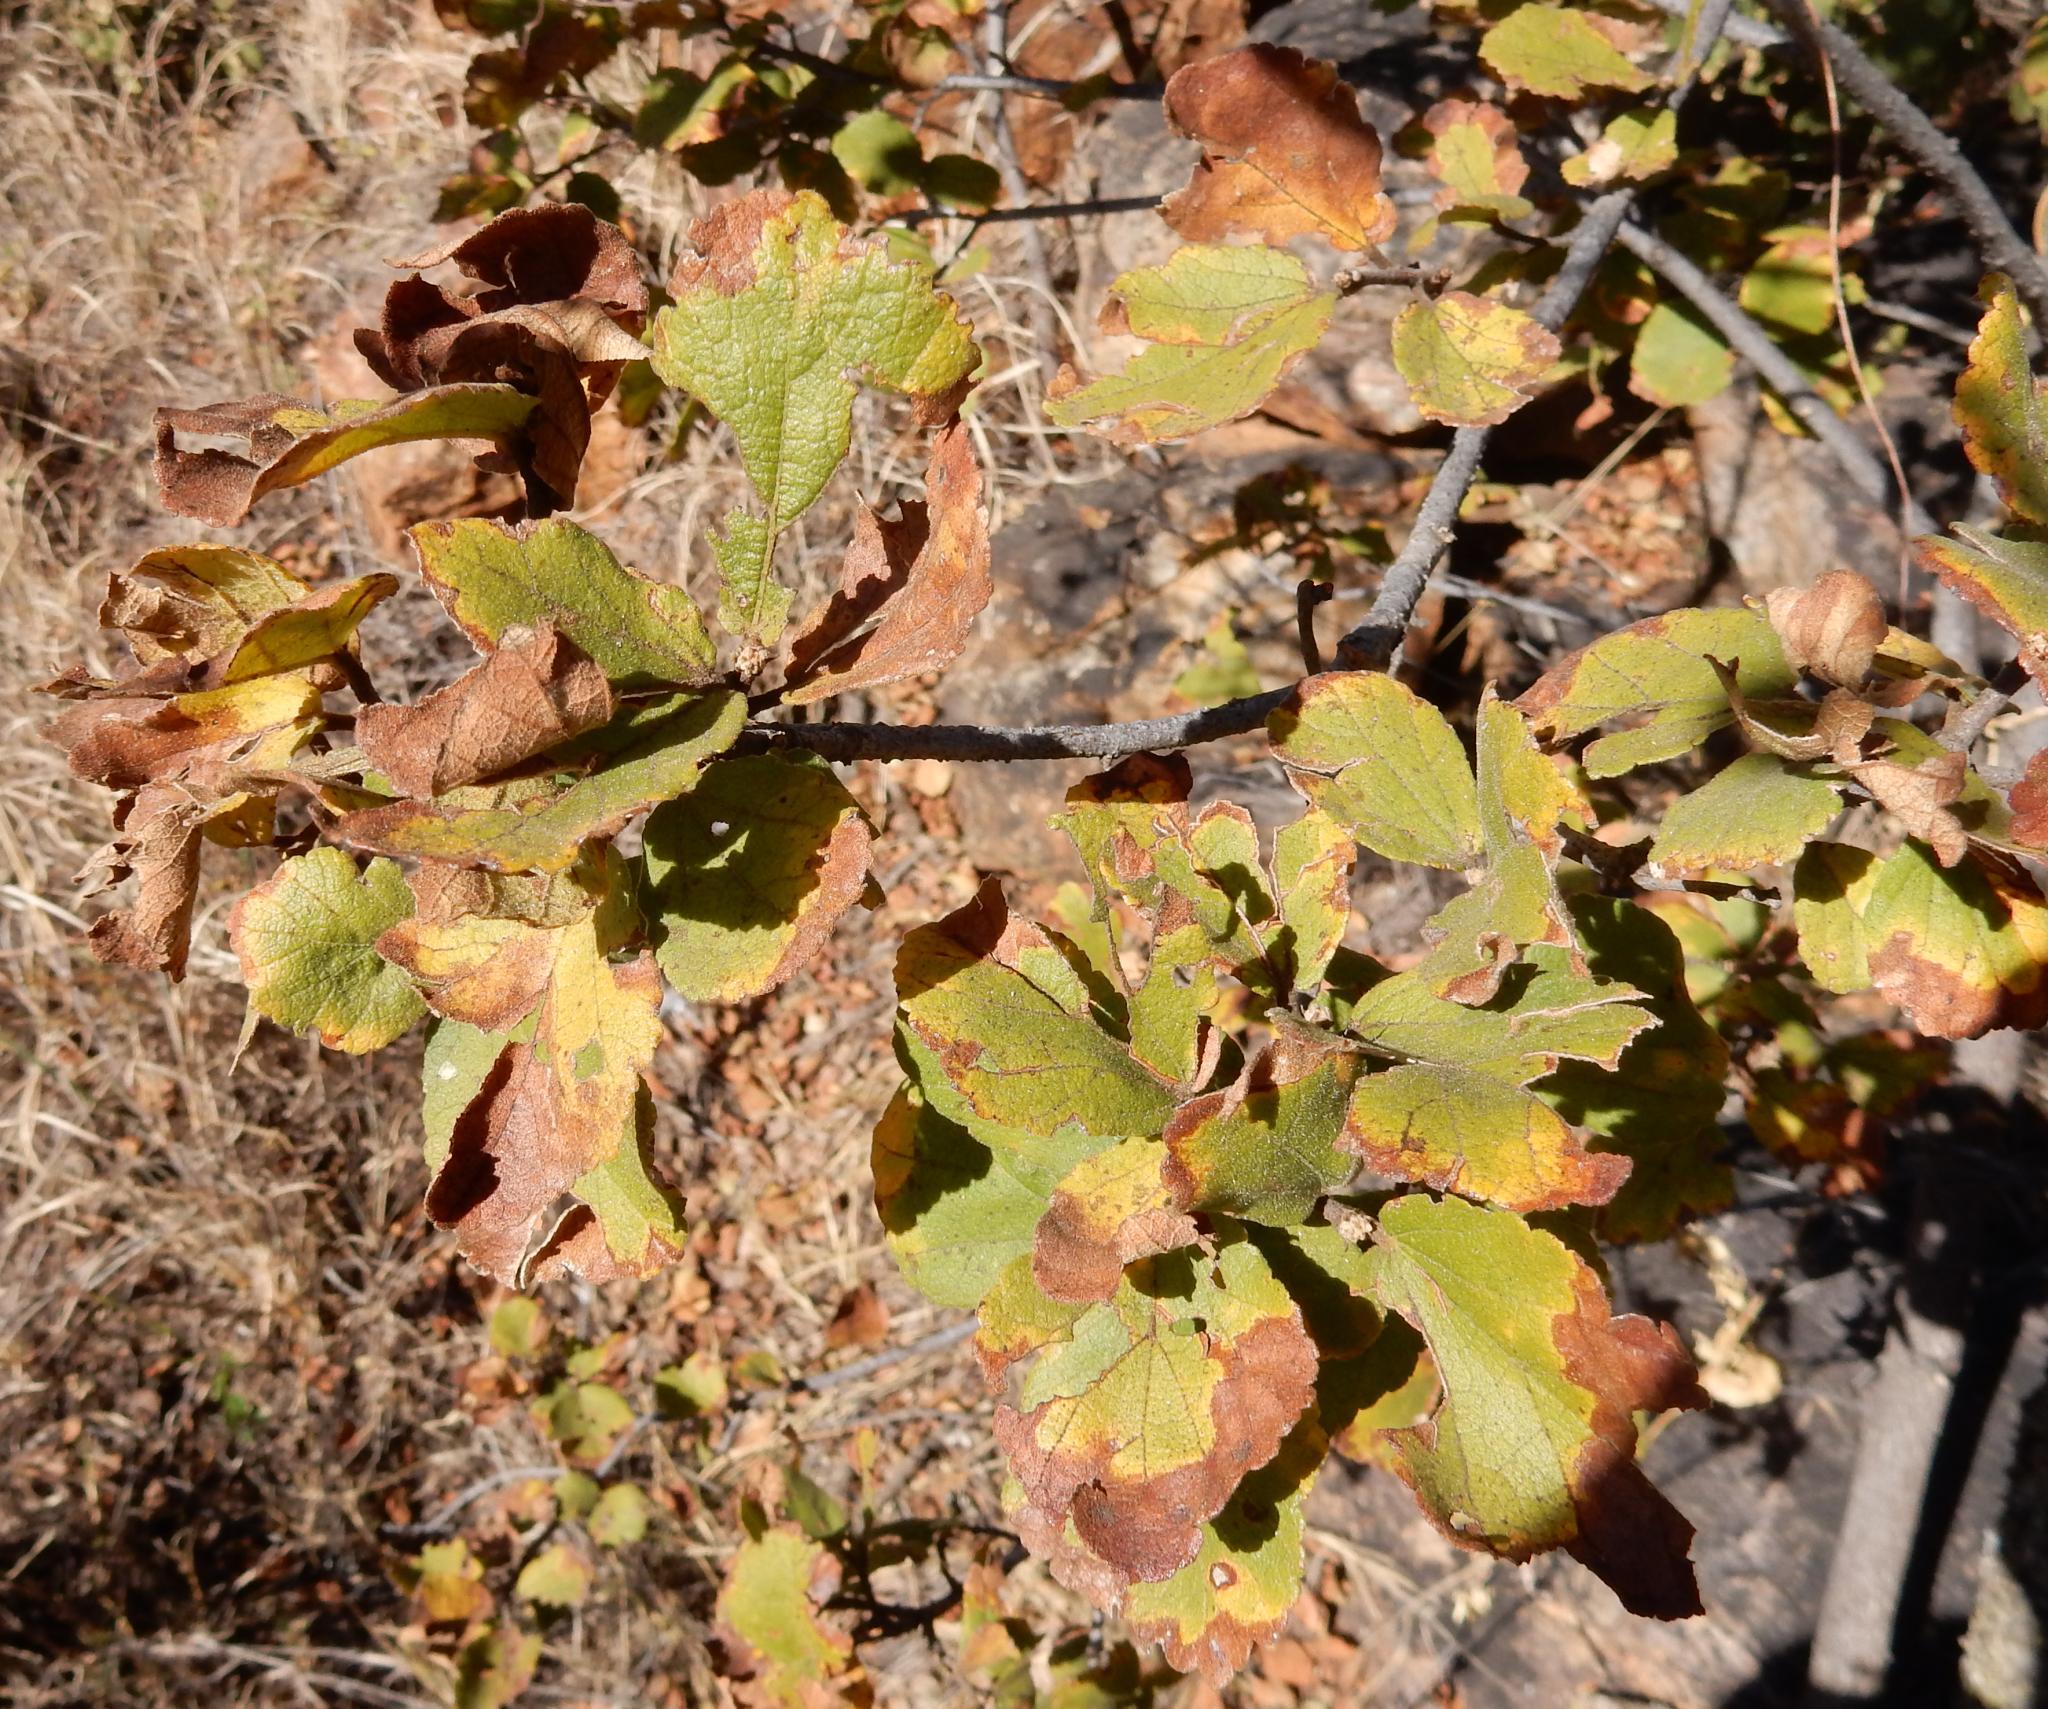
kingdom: Plantae
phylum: Tracheophyta
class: Magnoliopsida
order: Malvales
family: Malvaceae
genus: Dombeya
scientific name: Dombeya rotundifolia
